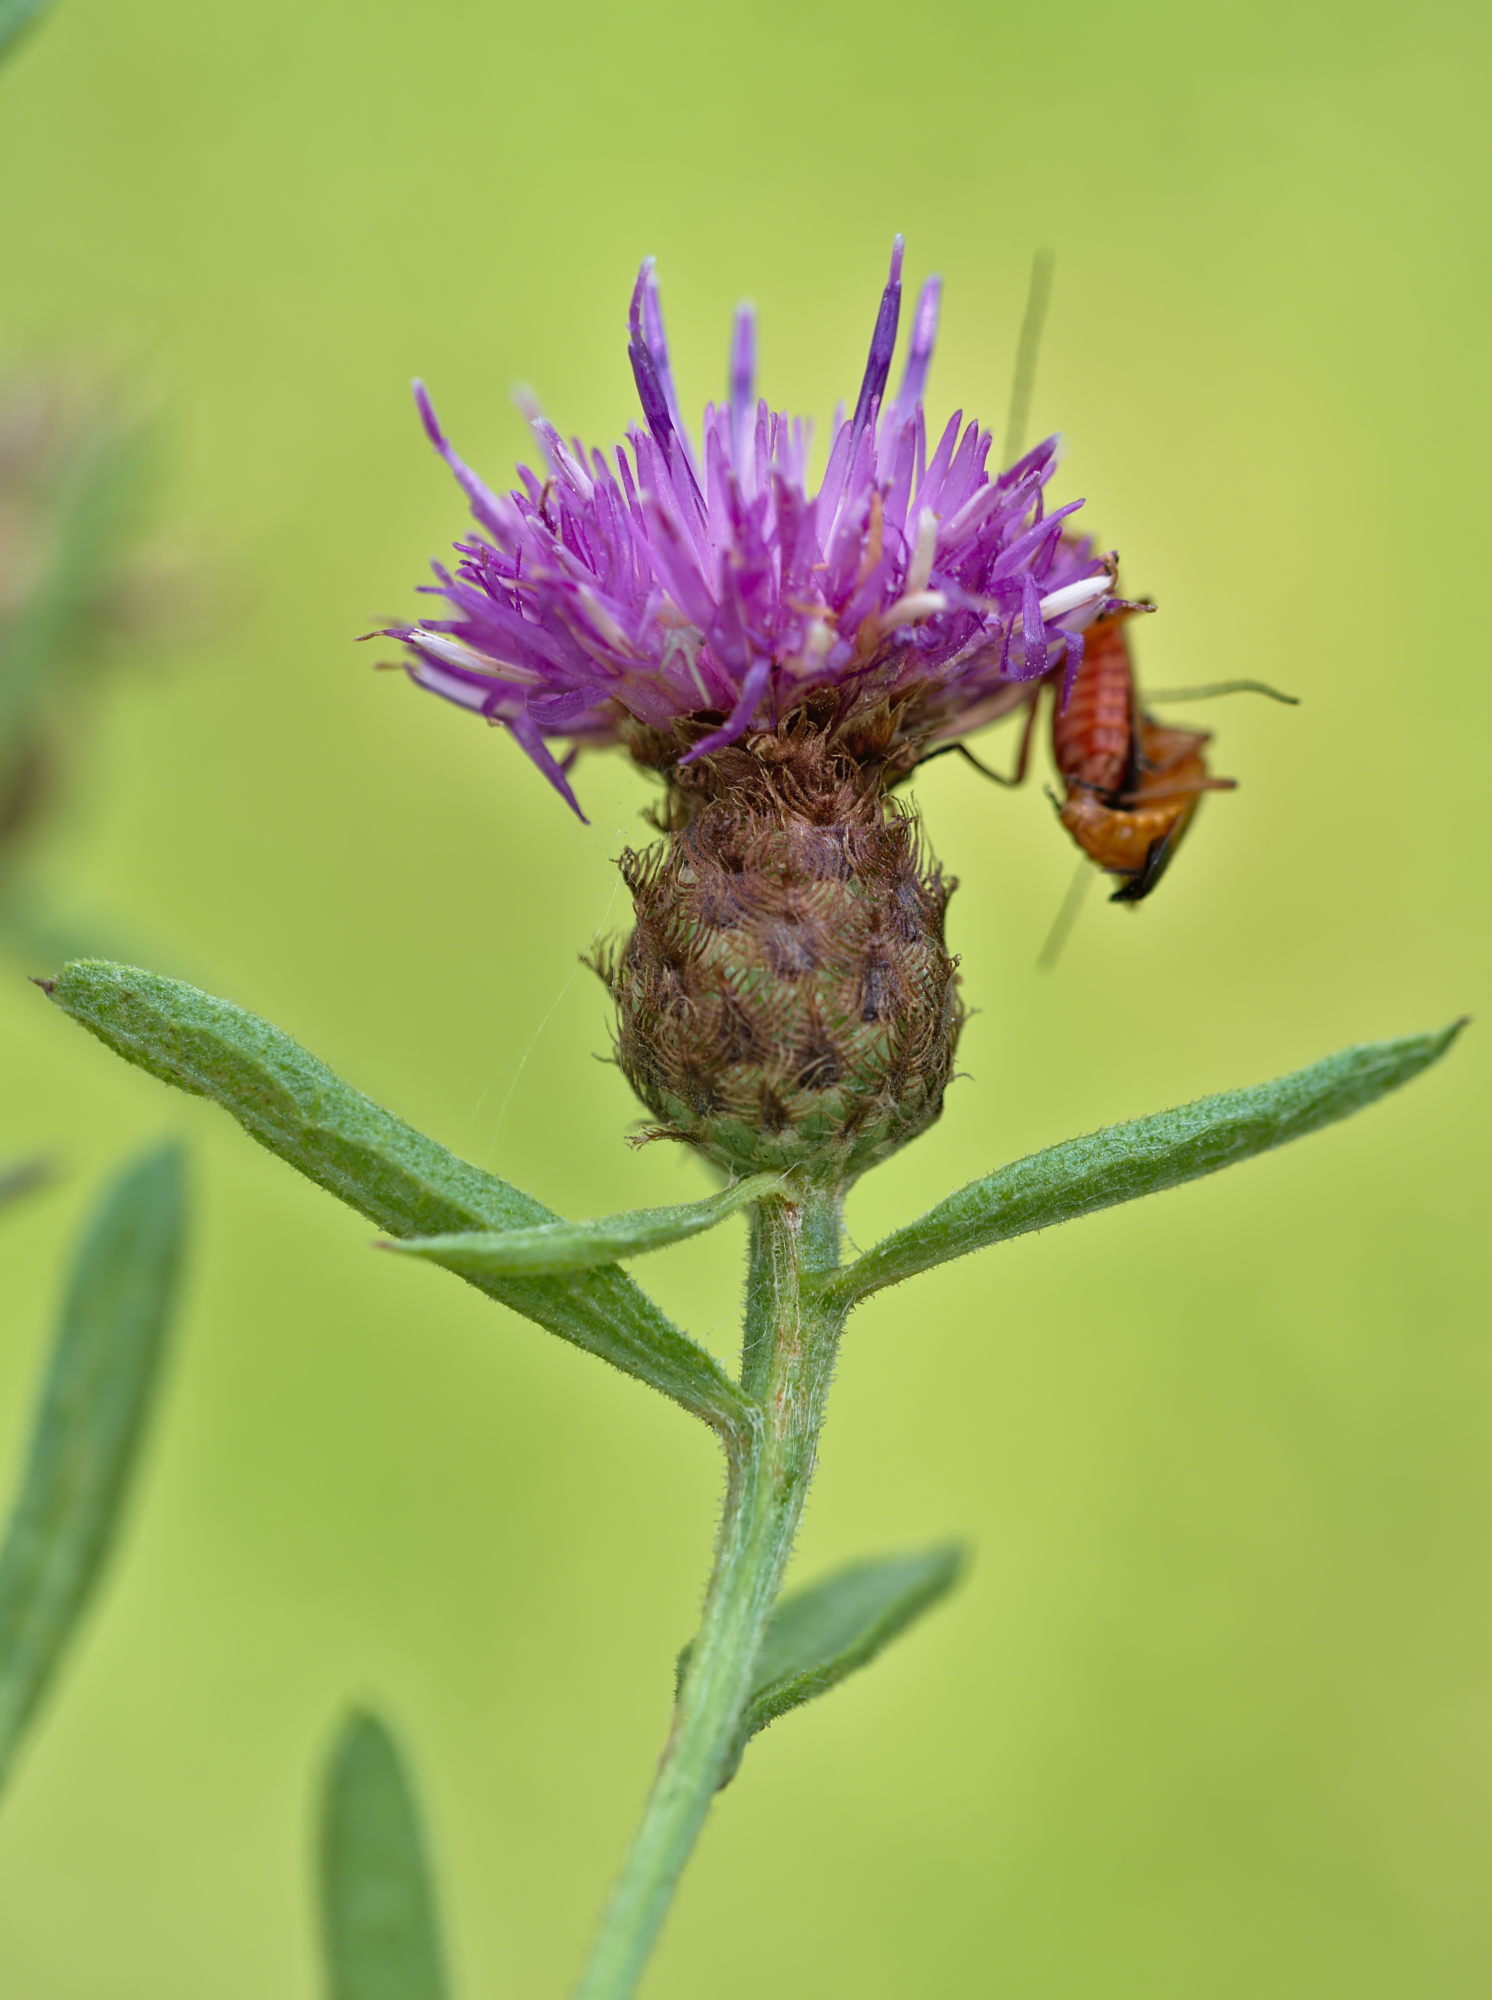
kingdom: Plantae
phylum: Tracheophyta
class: Magnoliopsida
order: Asterales
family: Asteraceae
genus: Centaurea
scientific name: Centaurea jacea
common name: Brown knapweed
